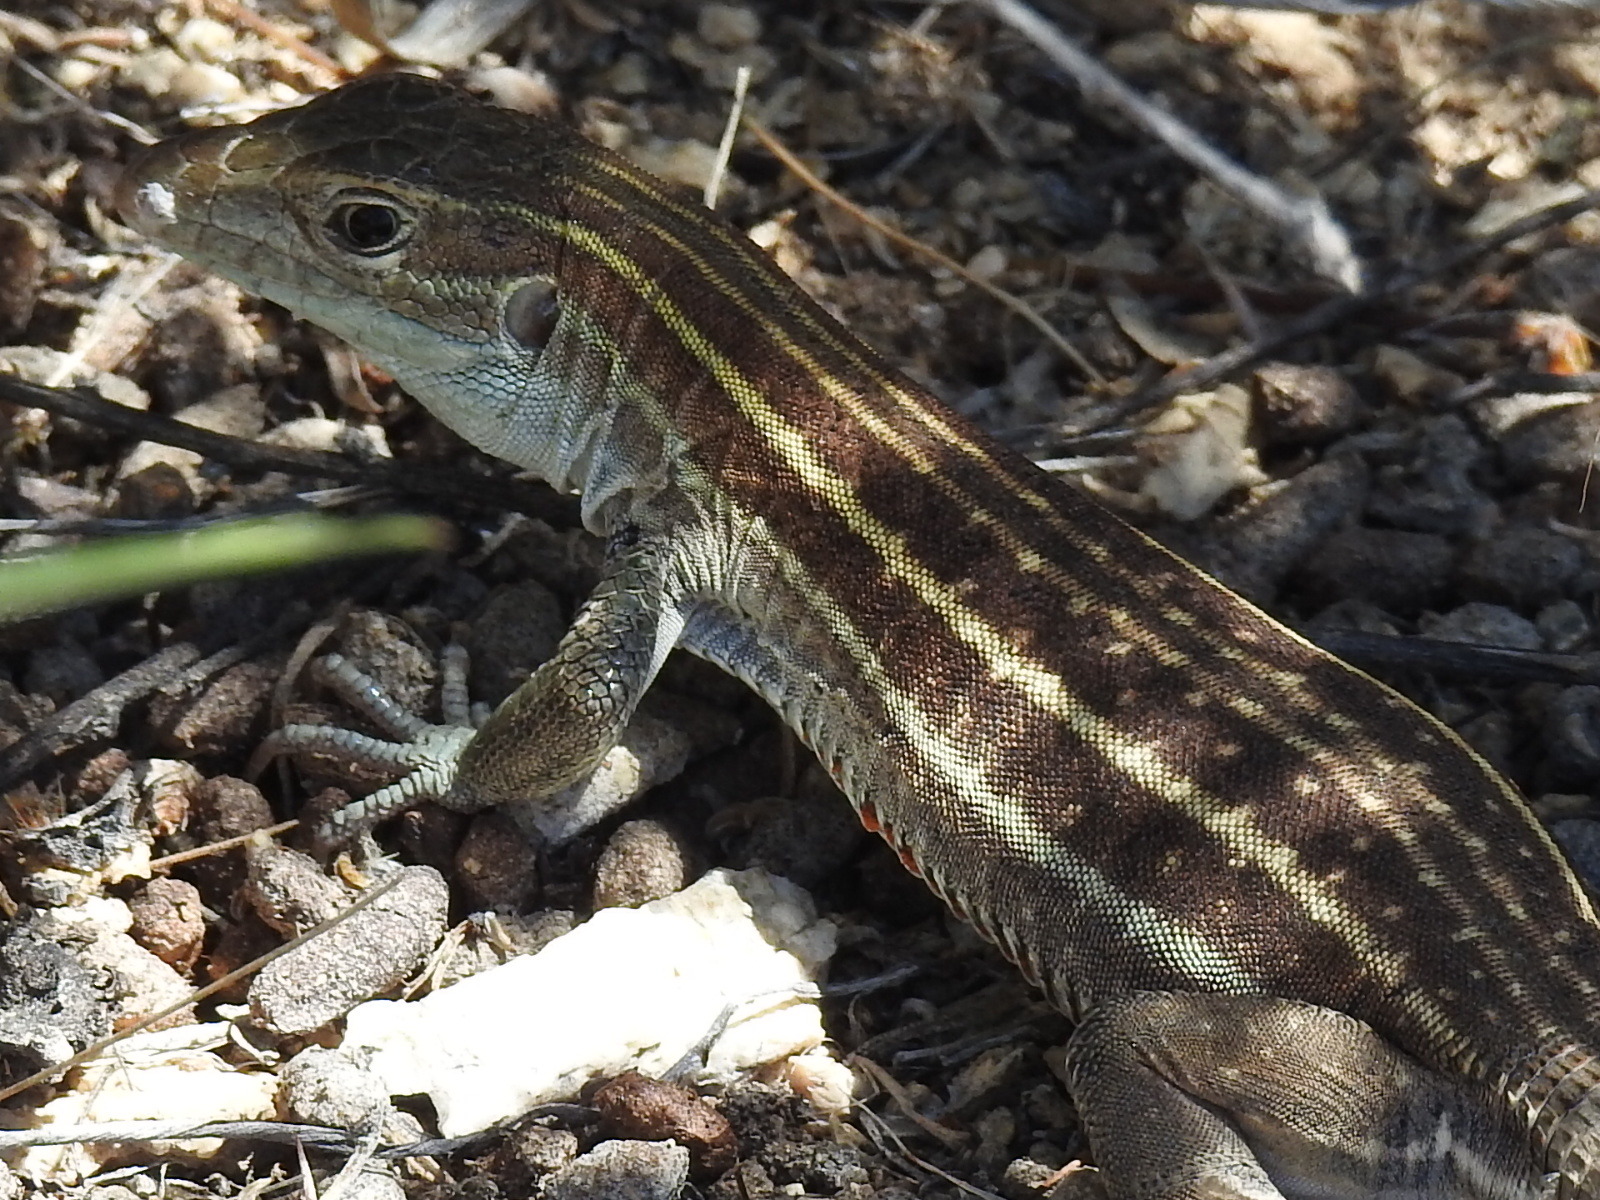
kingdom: Animalia
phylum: Chordata
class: Squamata
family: Teiidae
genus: Aspidoscelis
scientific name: Aspidoscelis sonorae
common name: Sonoran spotted whiptail
